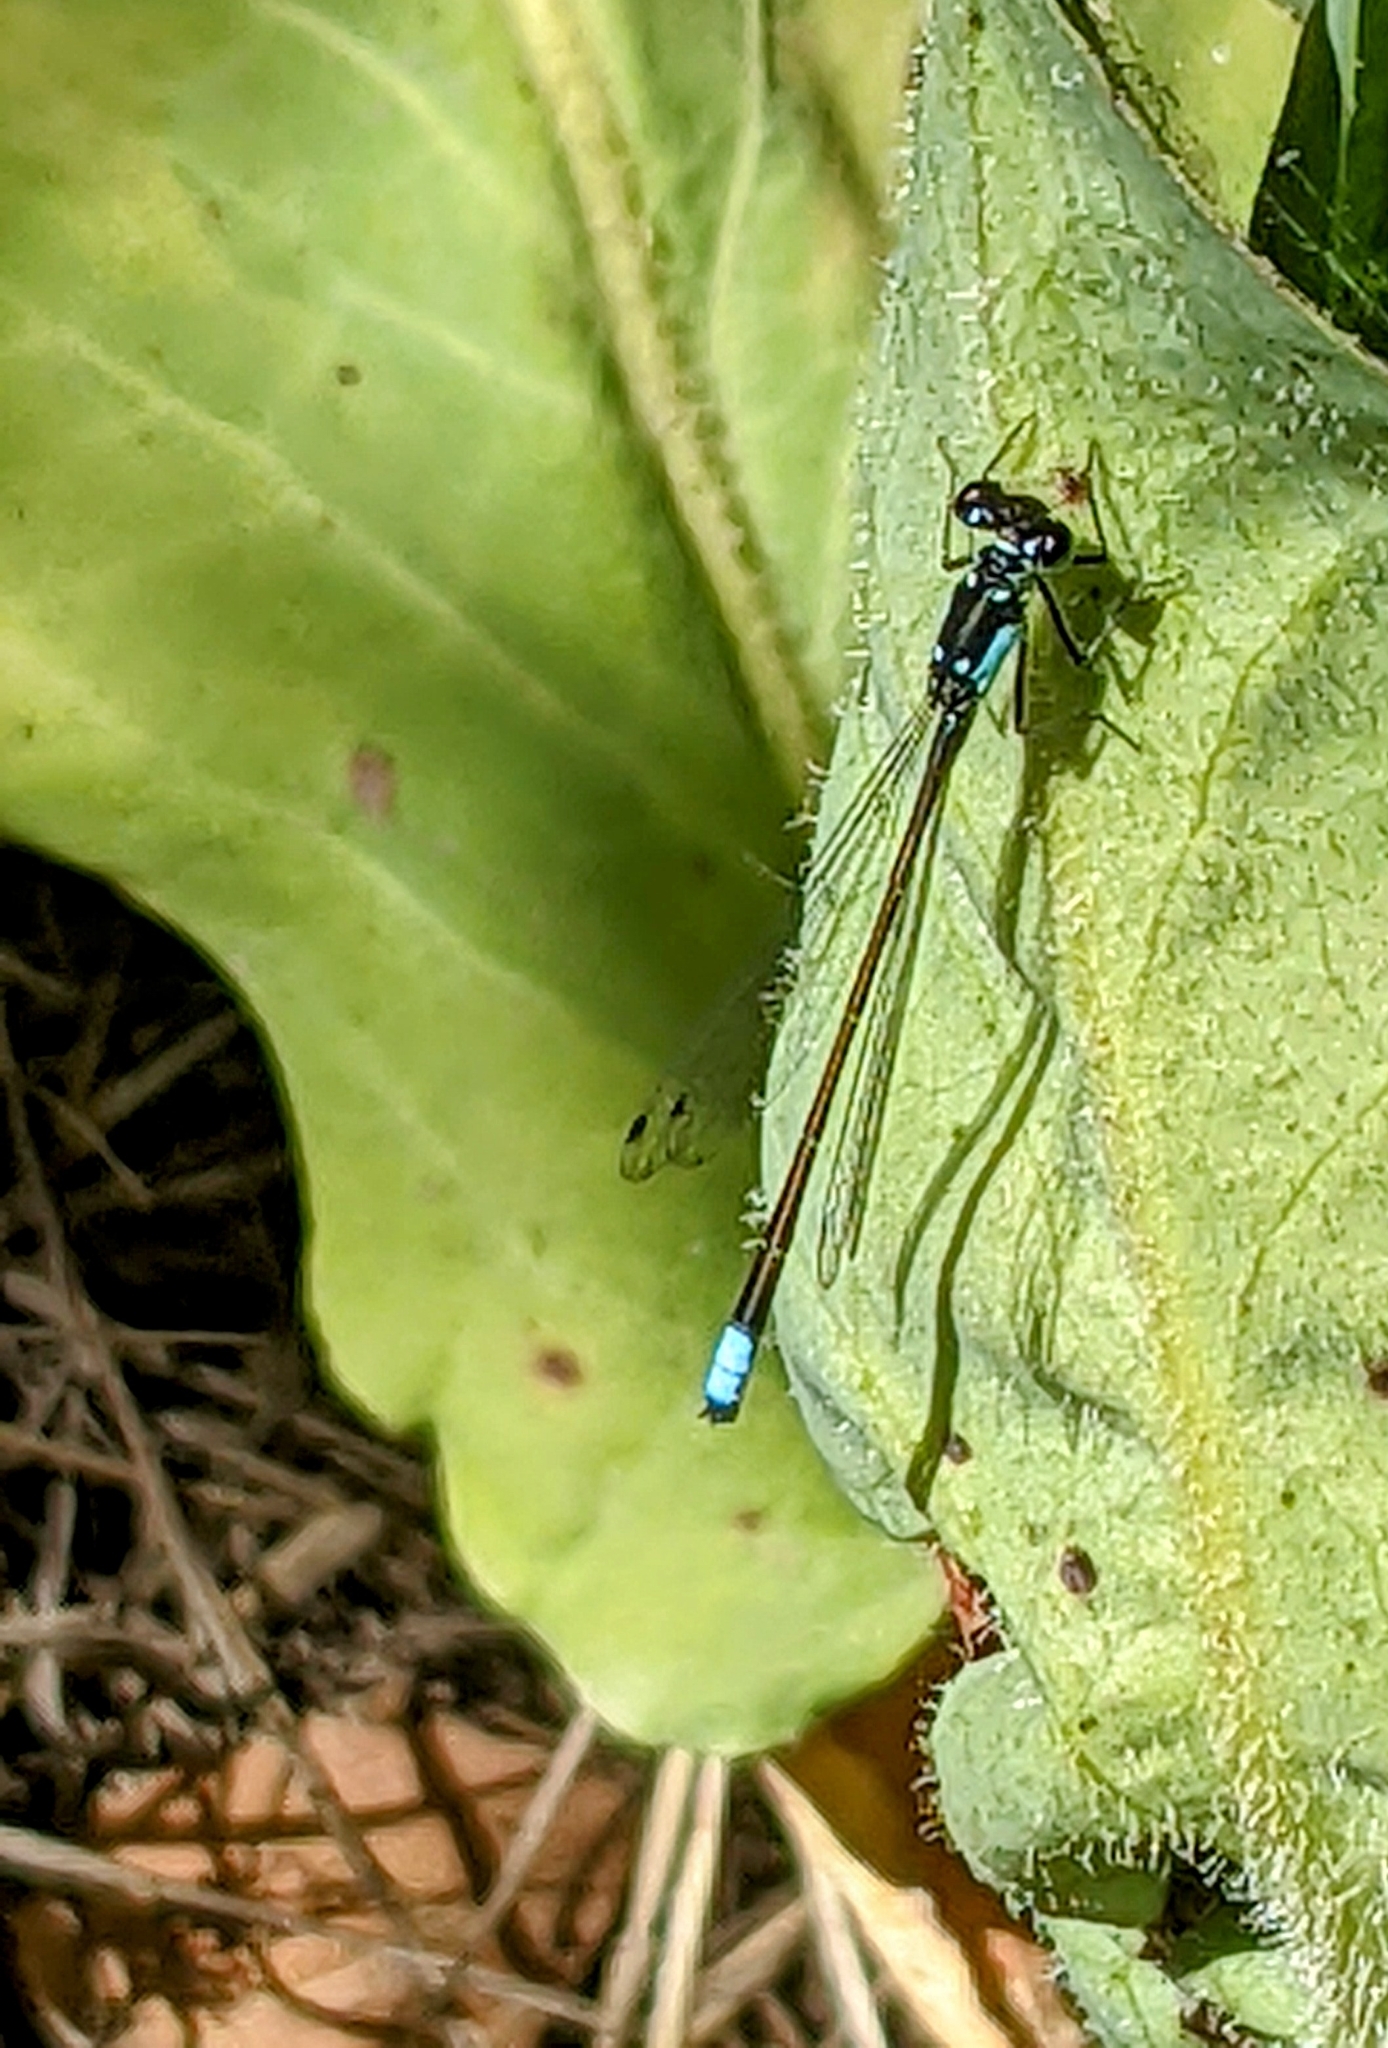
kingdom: Animalia
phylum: Arthropoda
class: Insecta
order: Odonata
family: Coenagrionidae
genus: Ischnura
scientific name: Ischnura cervula
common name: Pacific forktail
